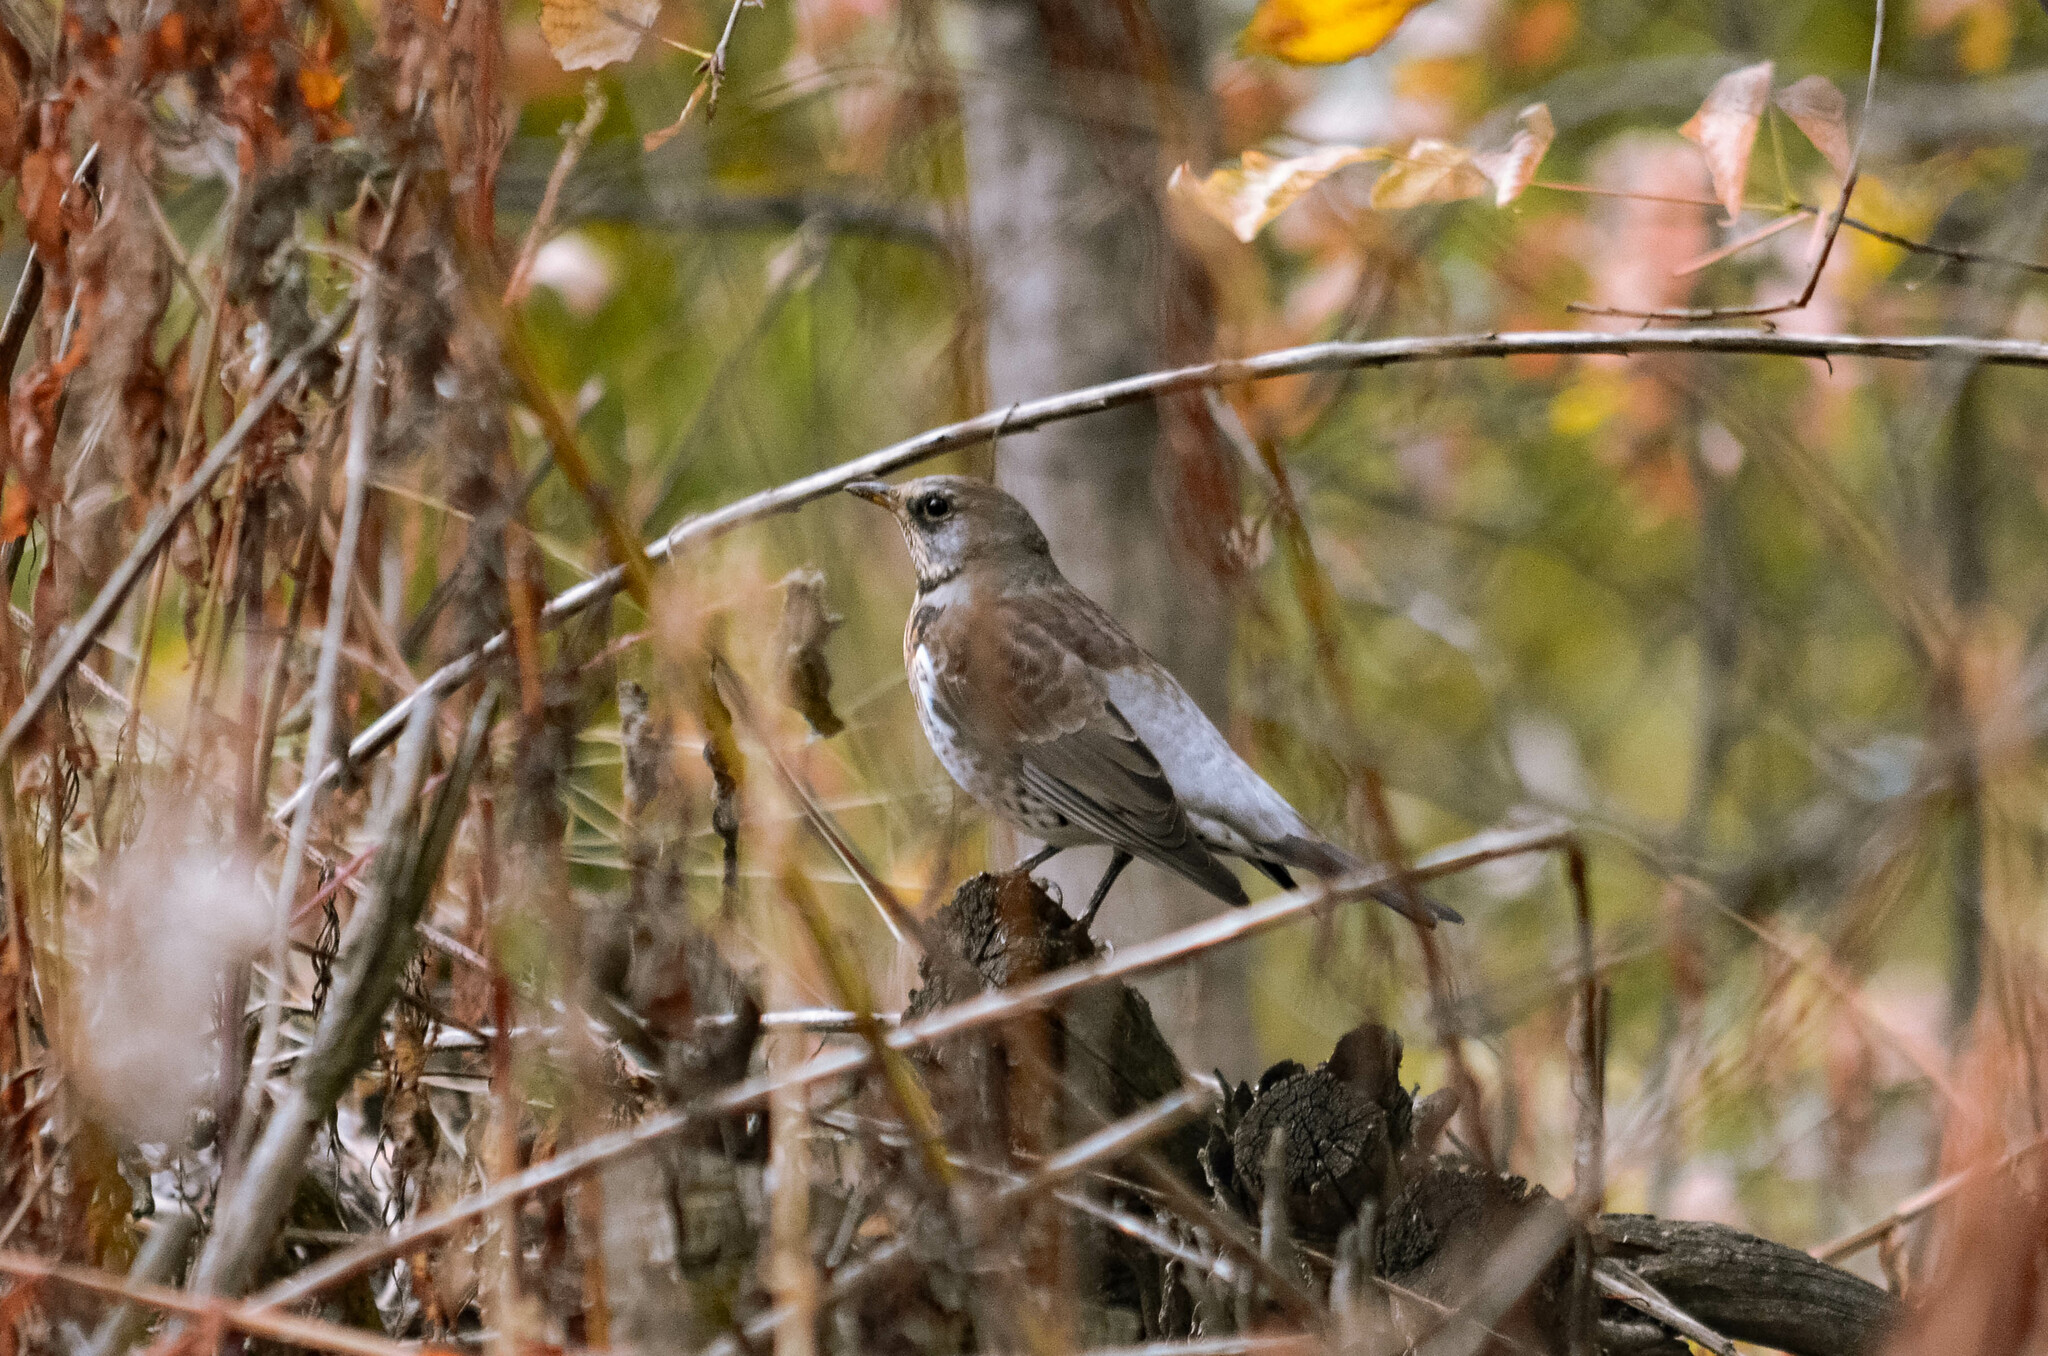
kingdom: Animalia
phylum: Chordata
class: Aves
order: Passeriformes
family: Turdidae
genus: Turdus
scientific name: Turdus pilaris
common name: Fieldfare
